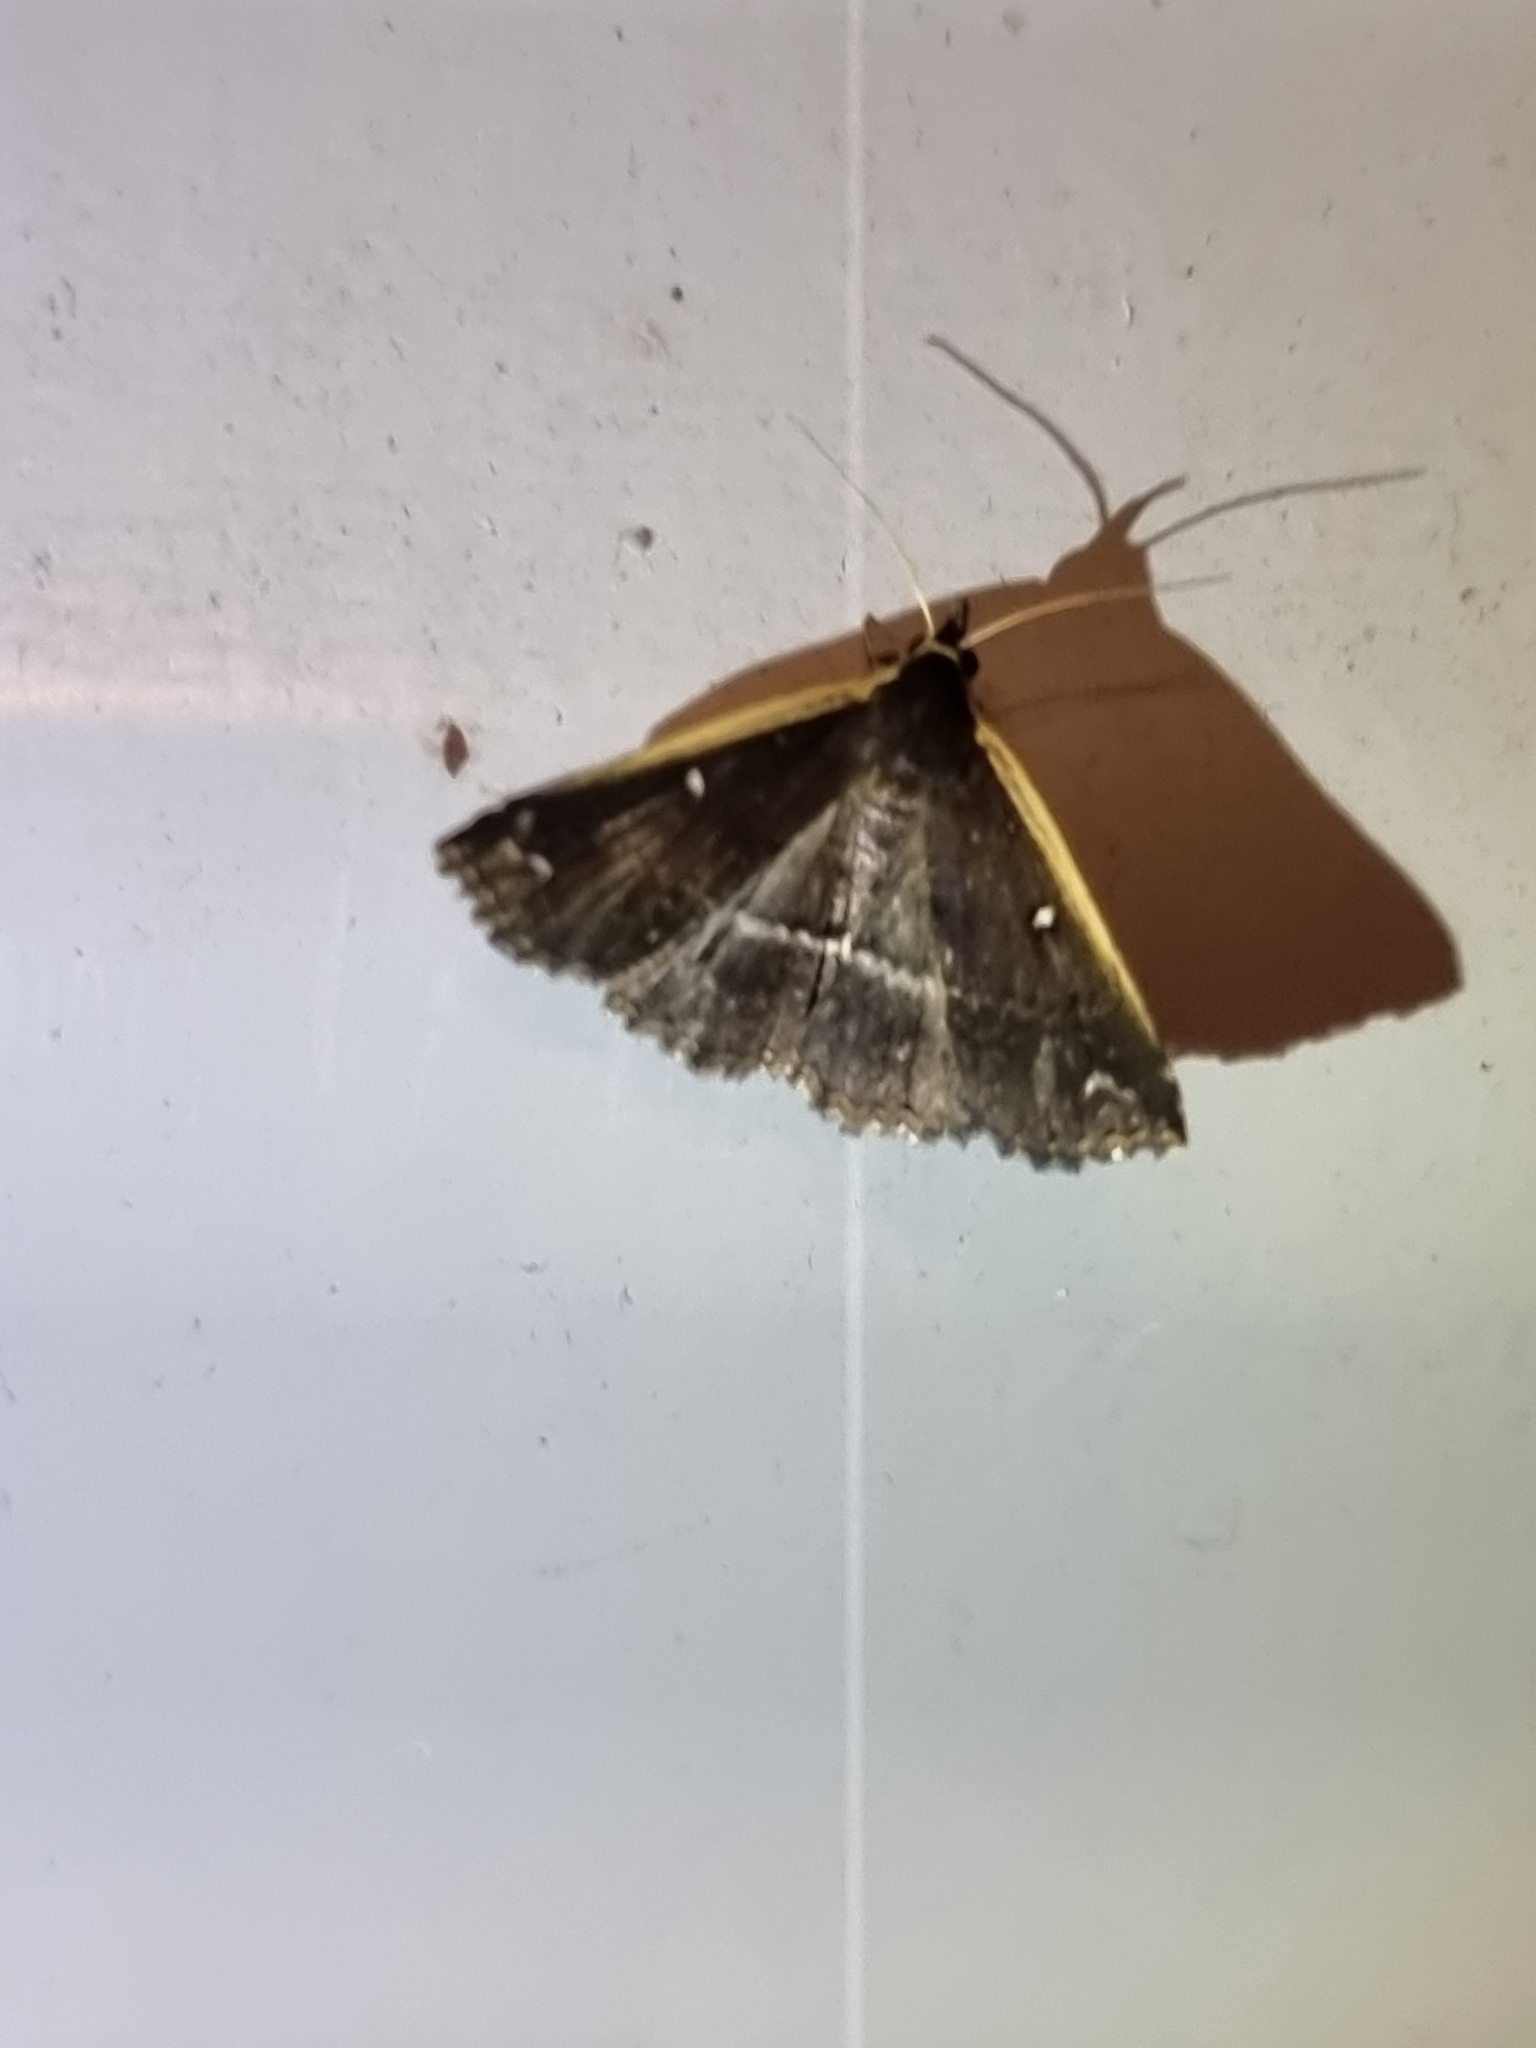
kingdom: Animalia
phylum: Arthropoda
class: Insecta
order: Lepidoptera
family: Erebidae
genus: Adrapsa
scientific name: Adrapsa ablualis
